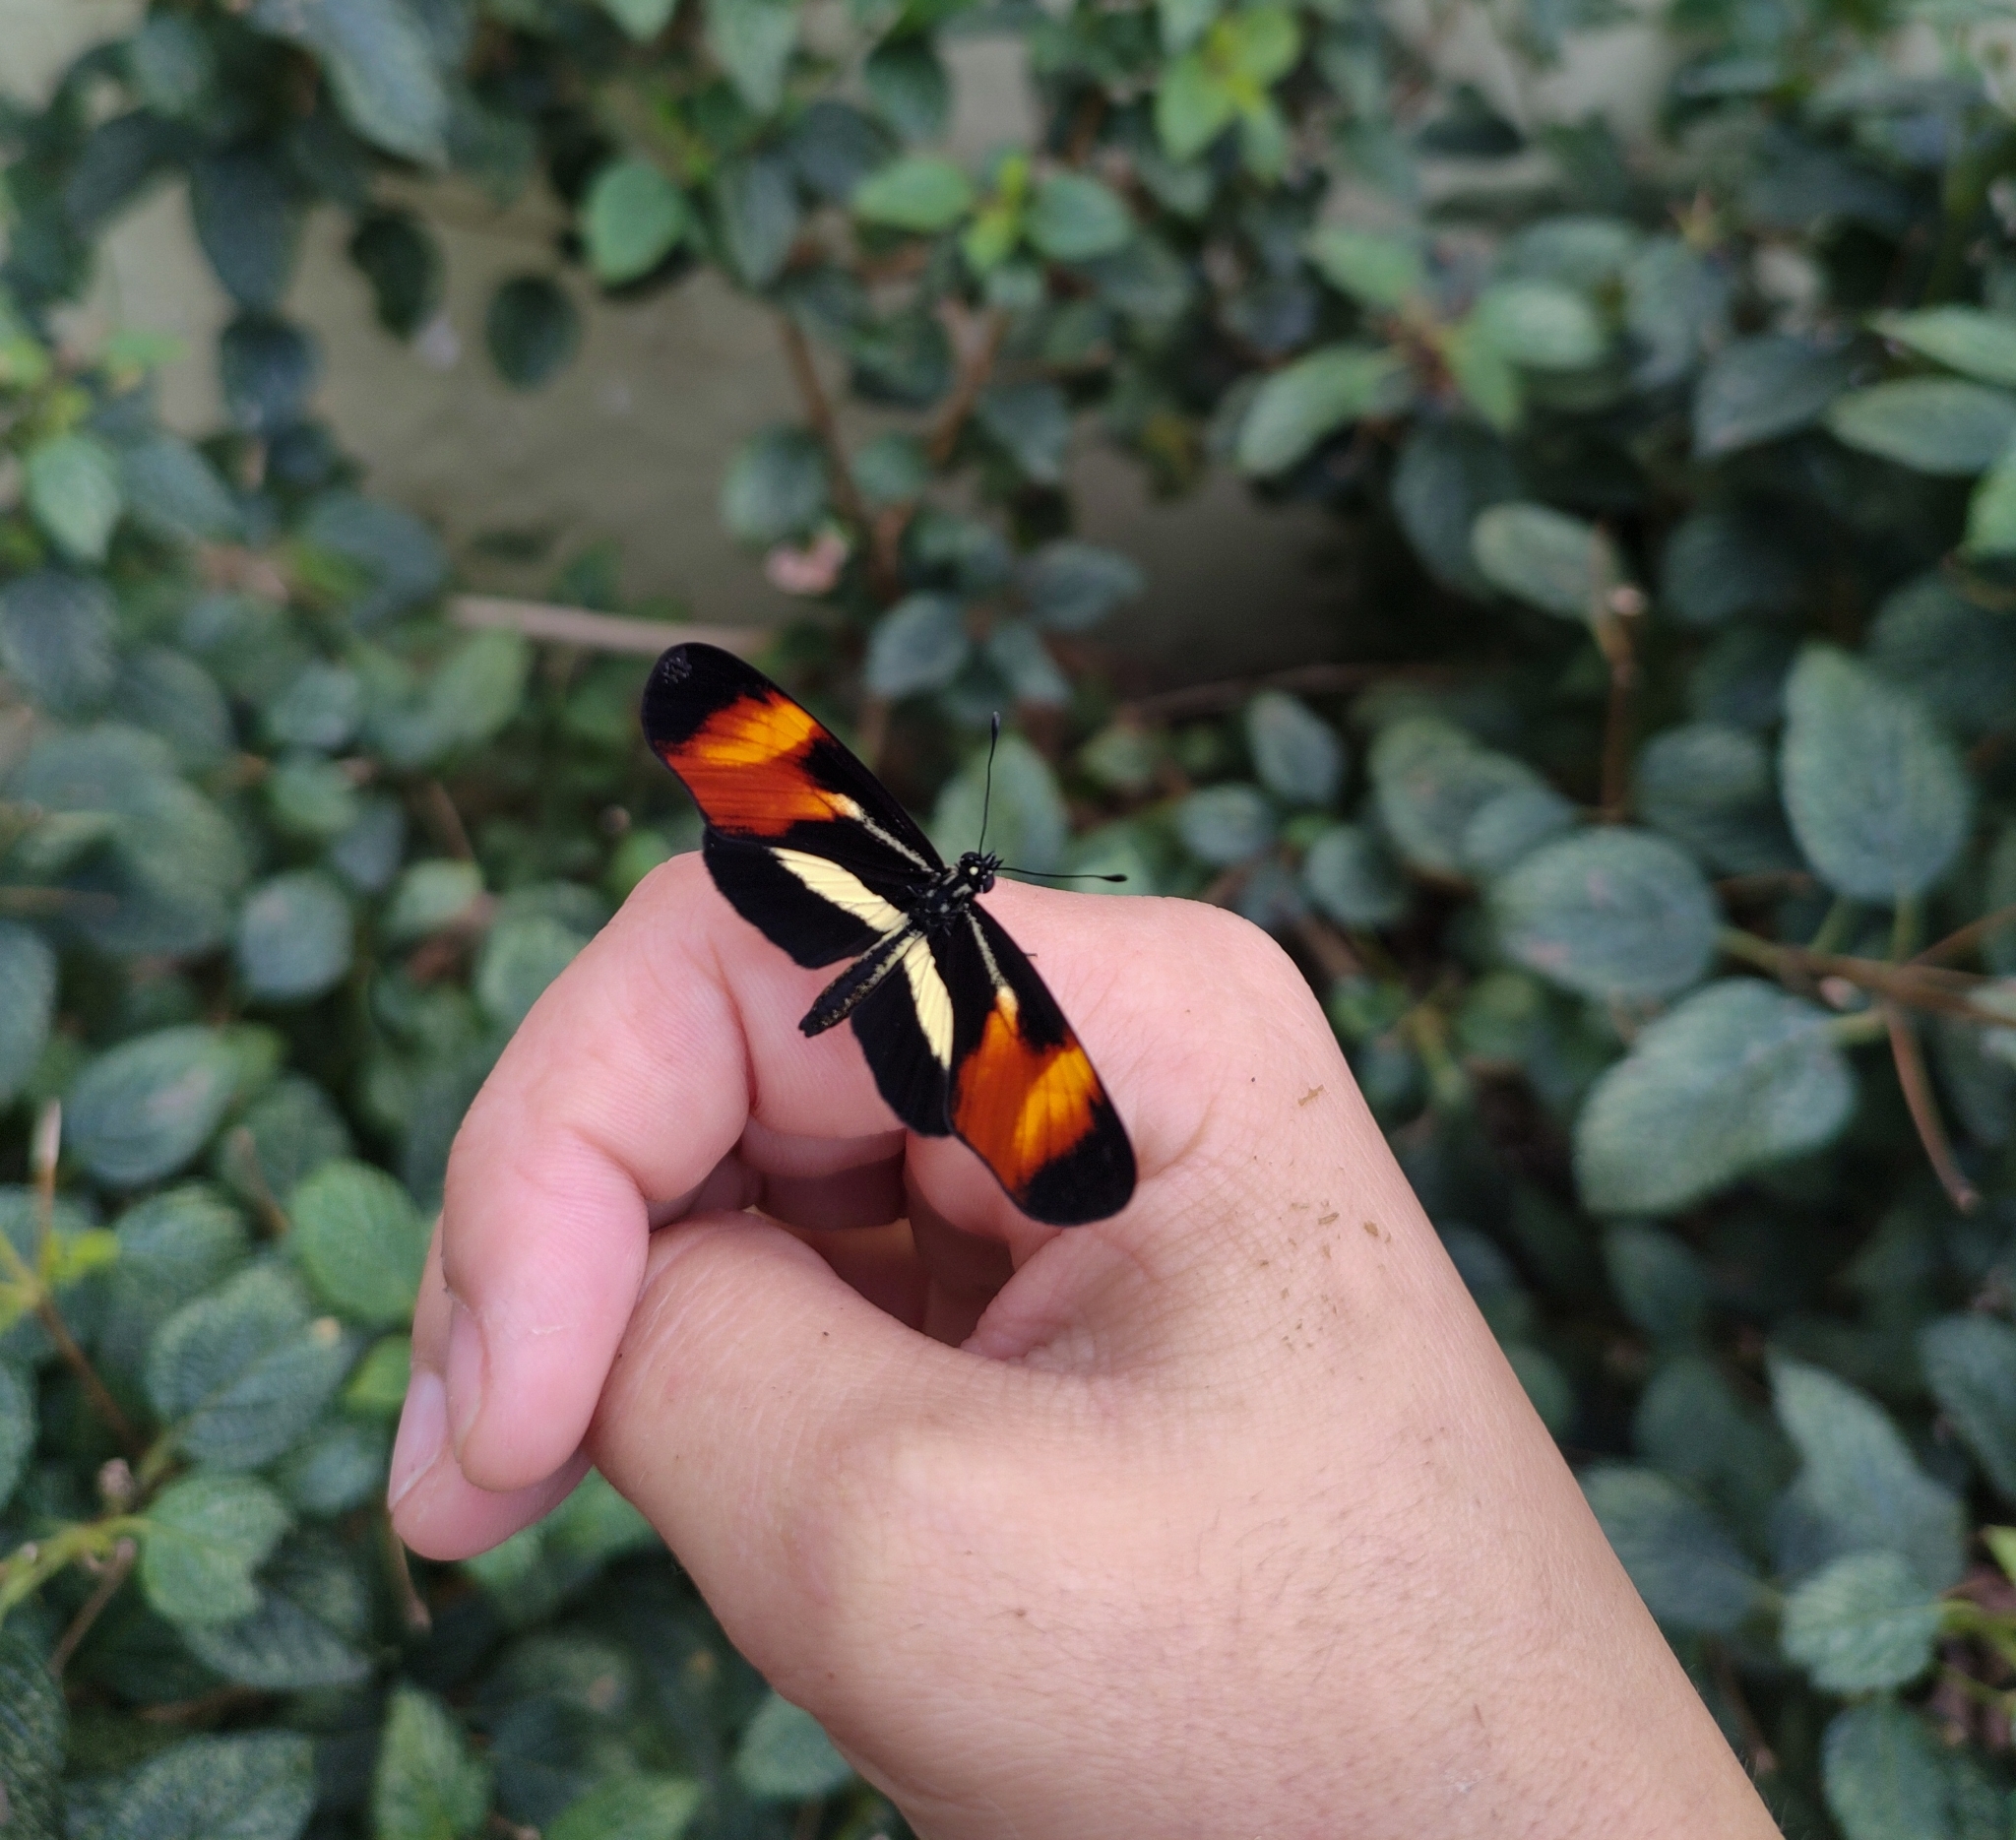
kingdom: Animalia
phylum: Arthropoda
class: Insecta
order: Lepidoptera
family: Nymphalidae
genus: Eresia
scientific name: Eresia lansdorfi
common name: Lansdorf's crescent
